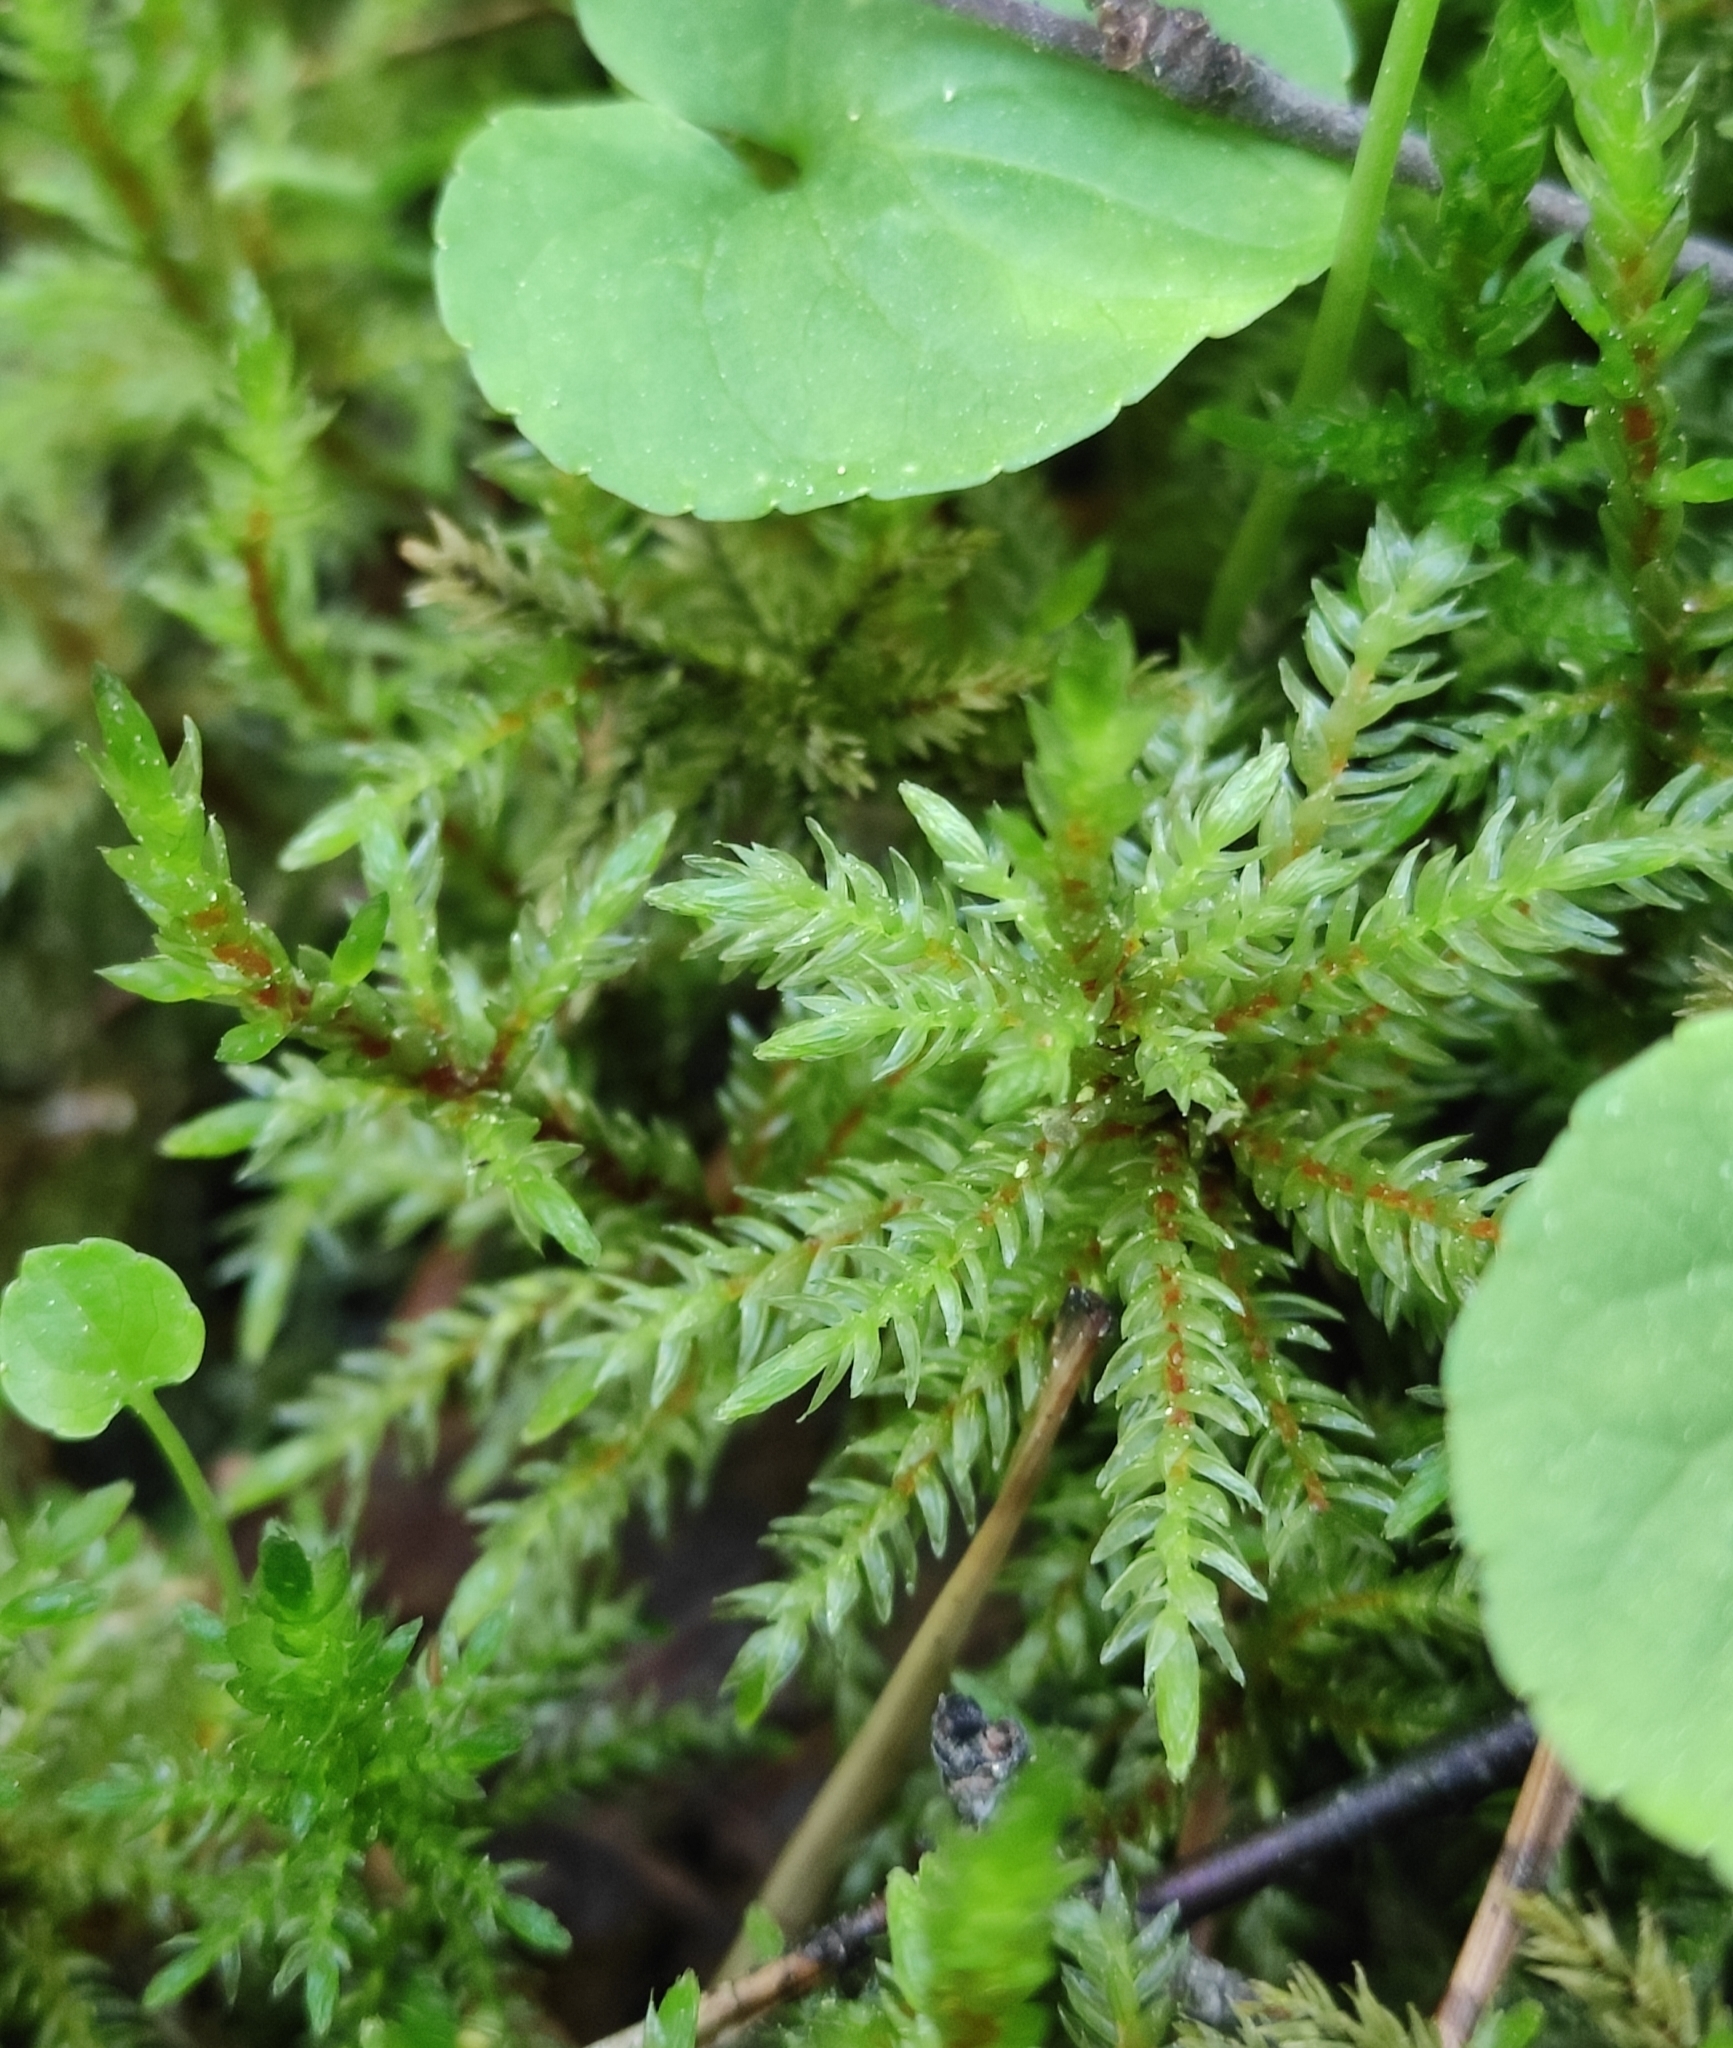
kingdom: Plantae
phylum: Bryophyta
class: Bryopsida
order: Hypnales
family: Climaciaceae
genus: Climacium
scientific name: Climacium dendroides
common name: Northern tree moss
